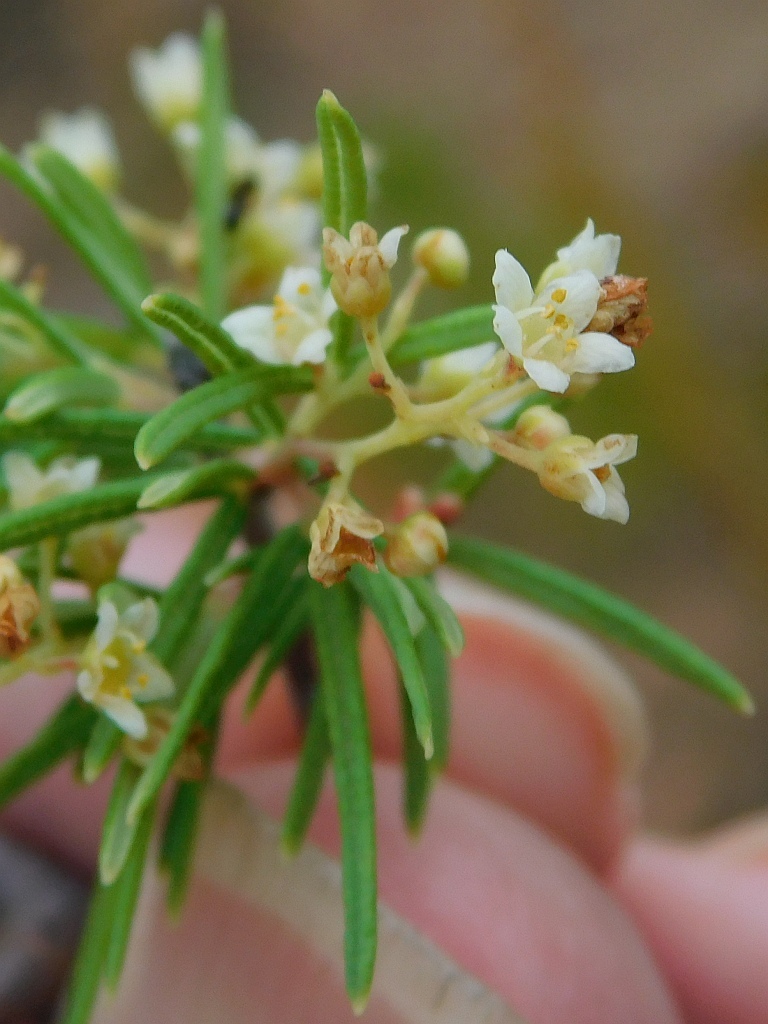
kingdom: Plantae
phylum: Tracheophyta
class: Magnoliopsida
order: Sapindales
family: Anacardiaceae
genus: Searsia
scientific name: Searsia rosmarinifolia
